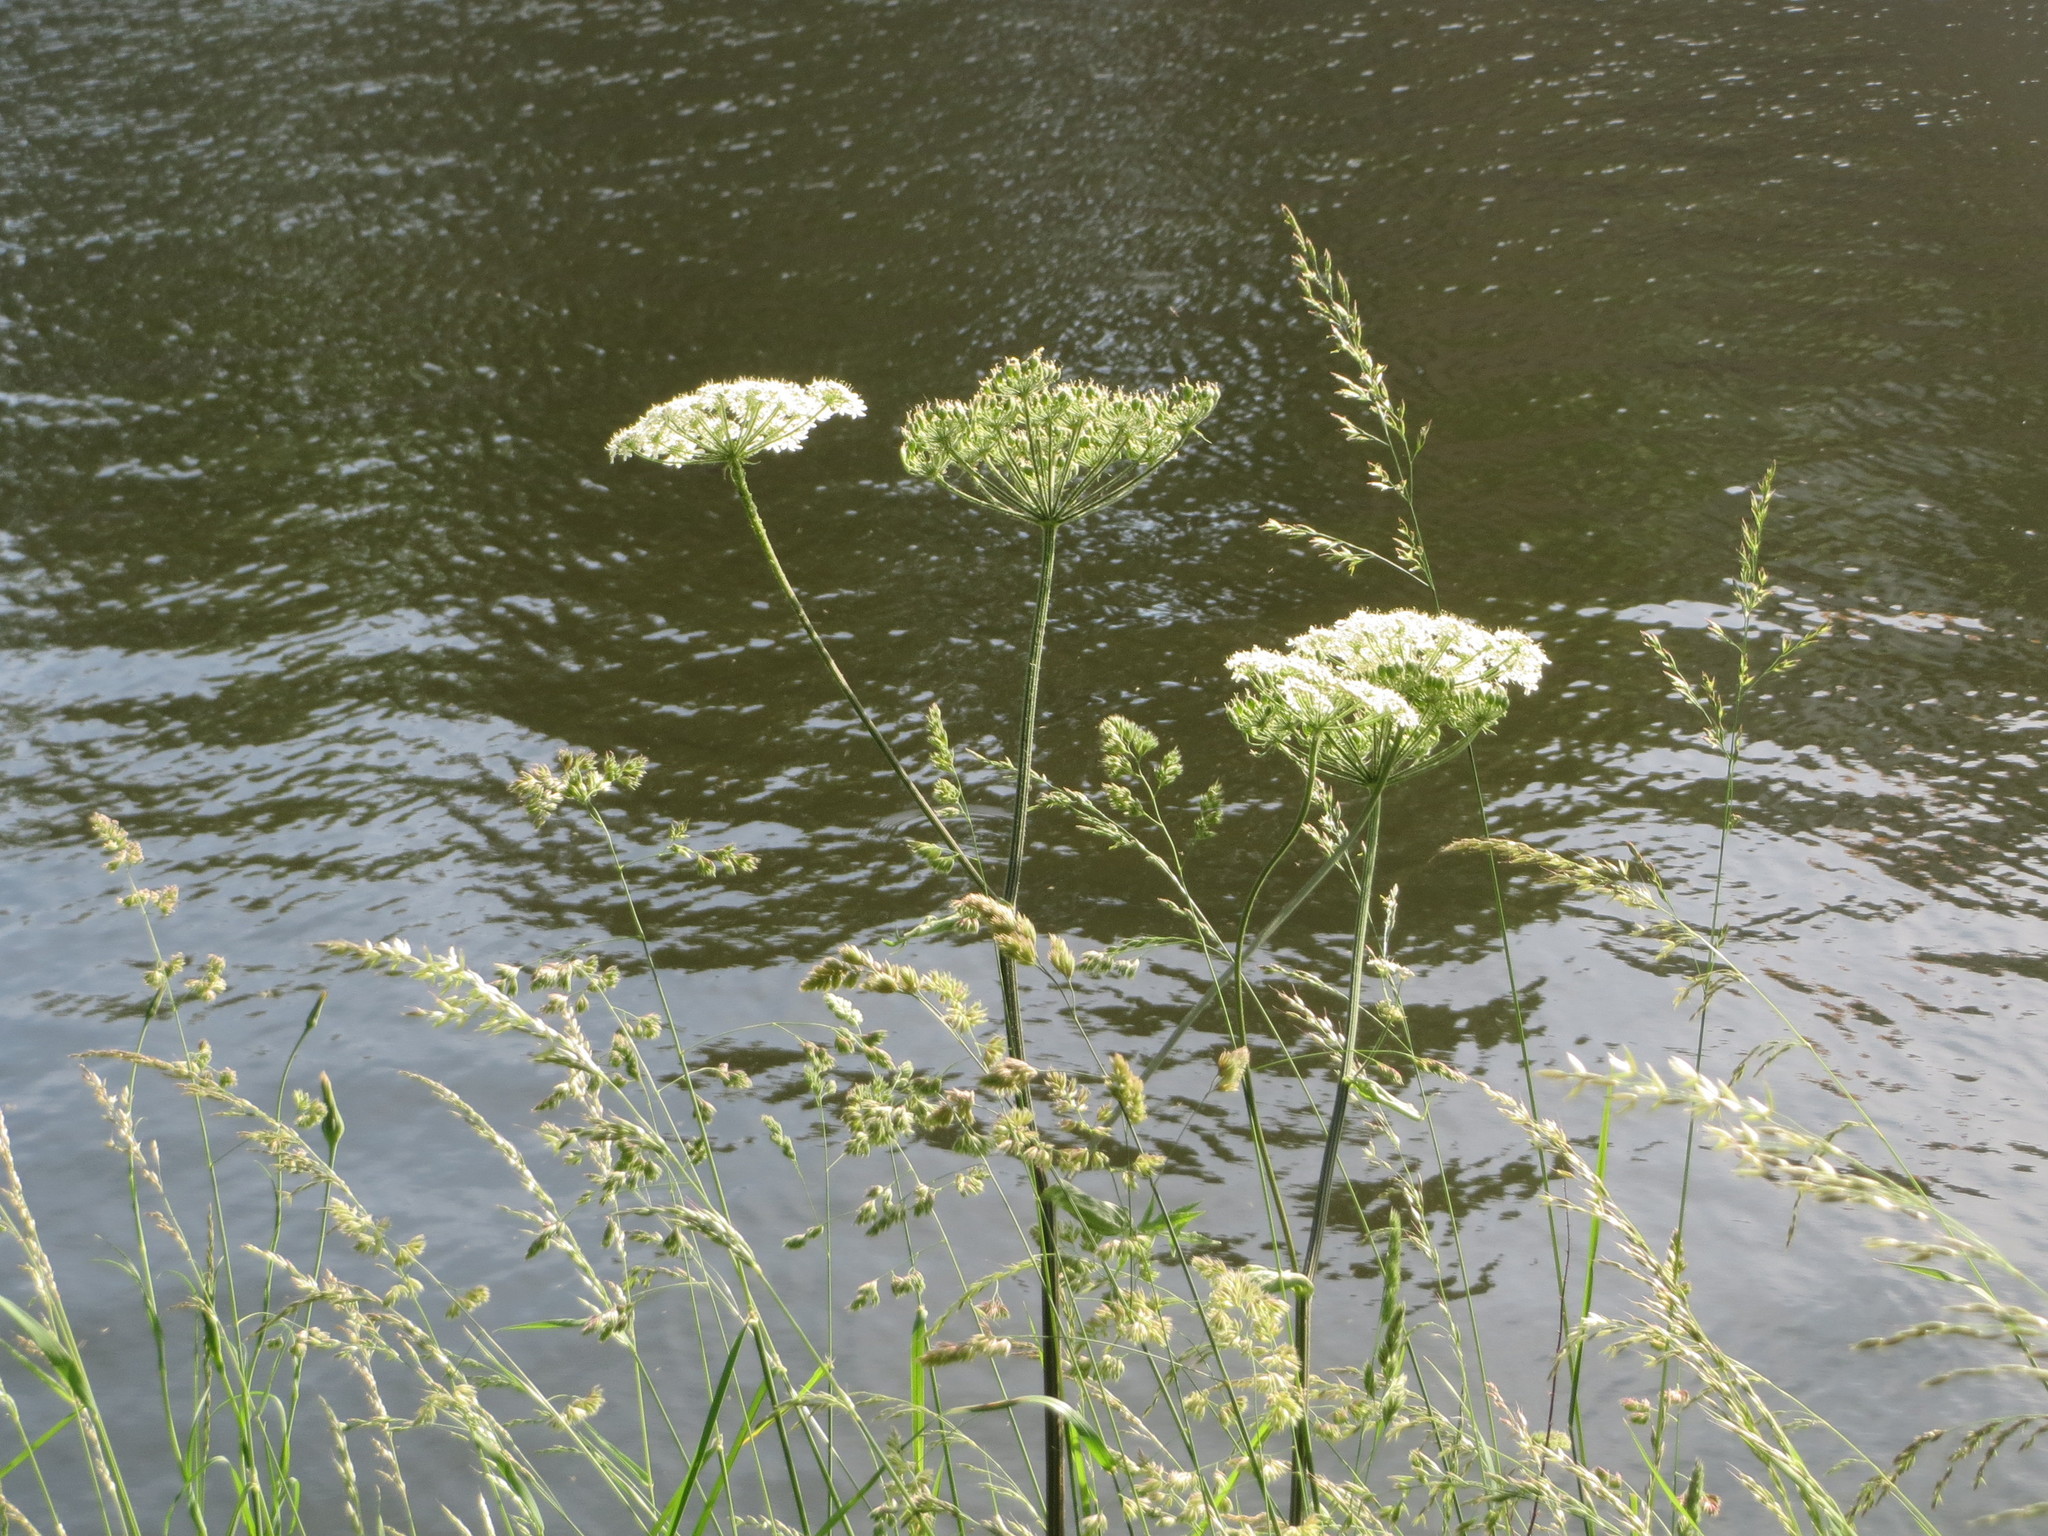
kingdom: Plantae
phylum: Tracheophyta
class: Magnoliopsida
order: Apiales
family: Apiaceae
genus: Heracleum
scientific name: Heracleum sphondylium
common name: Hogweed
